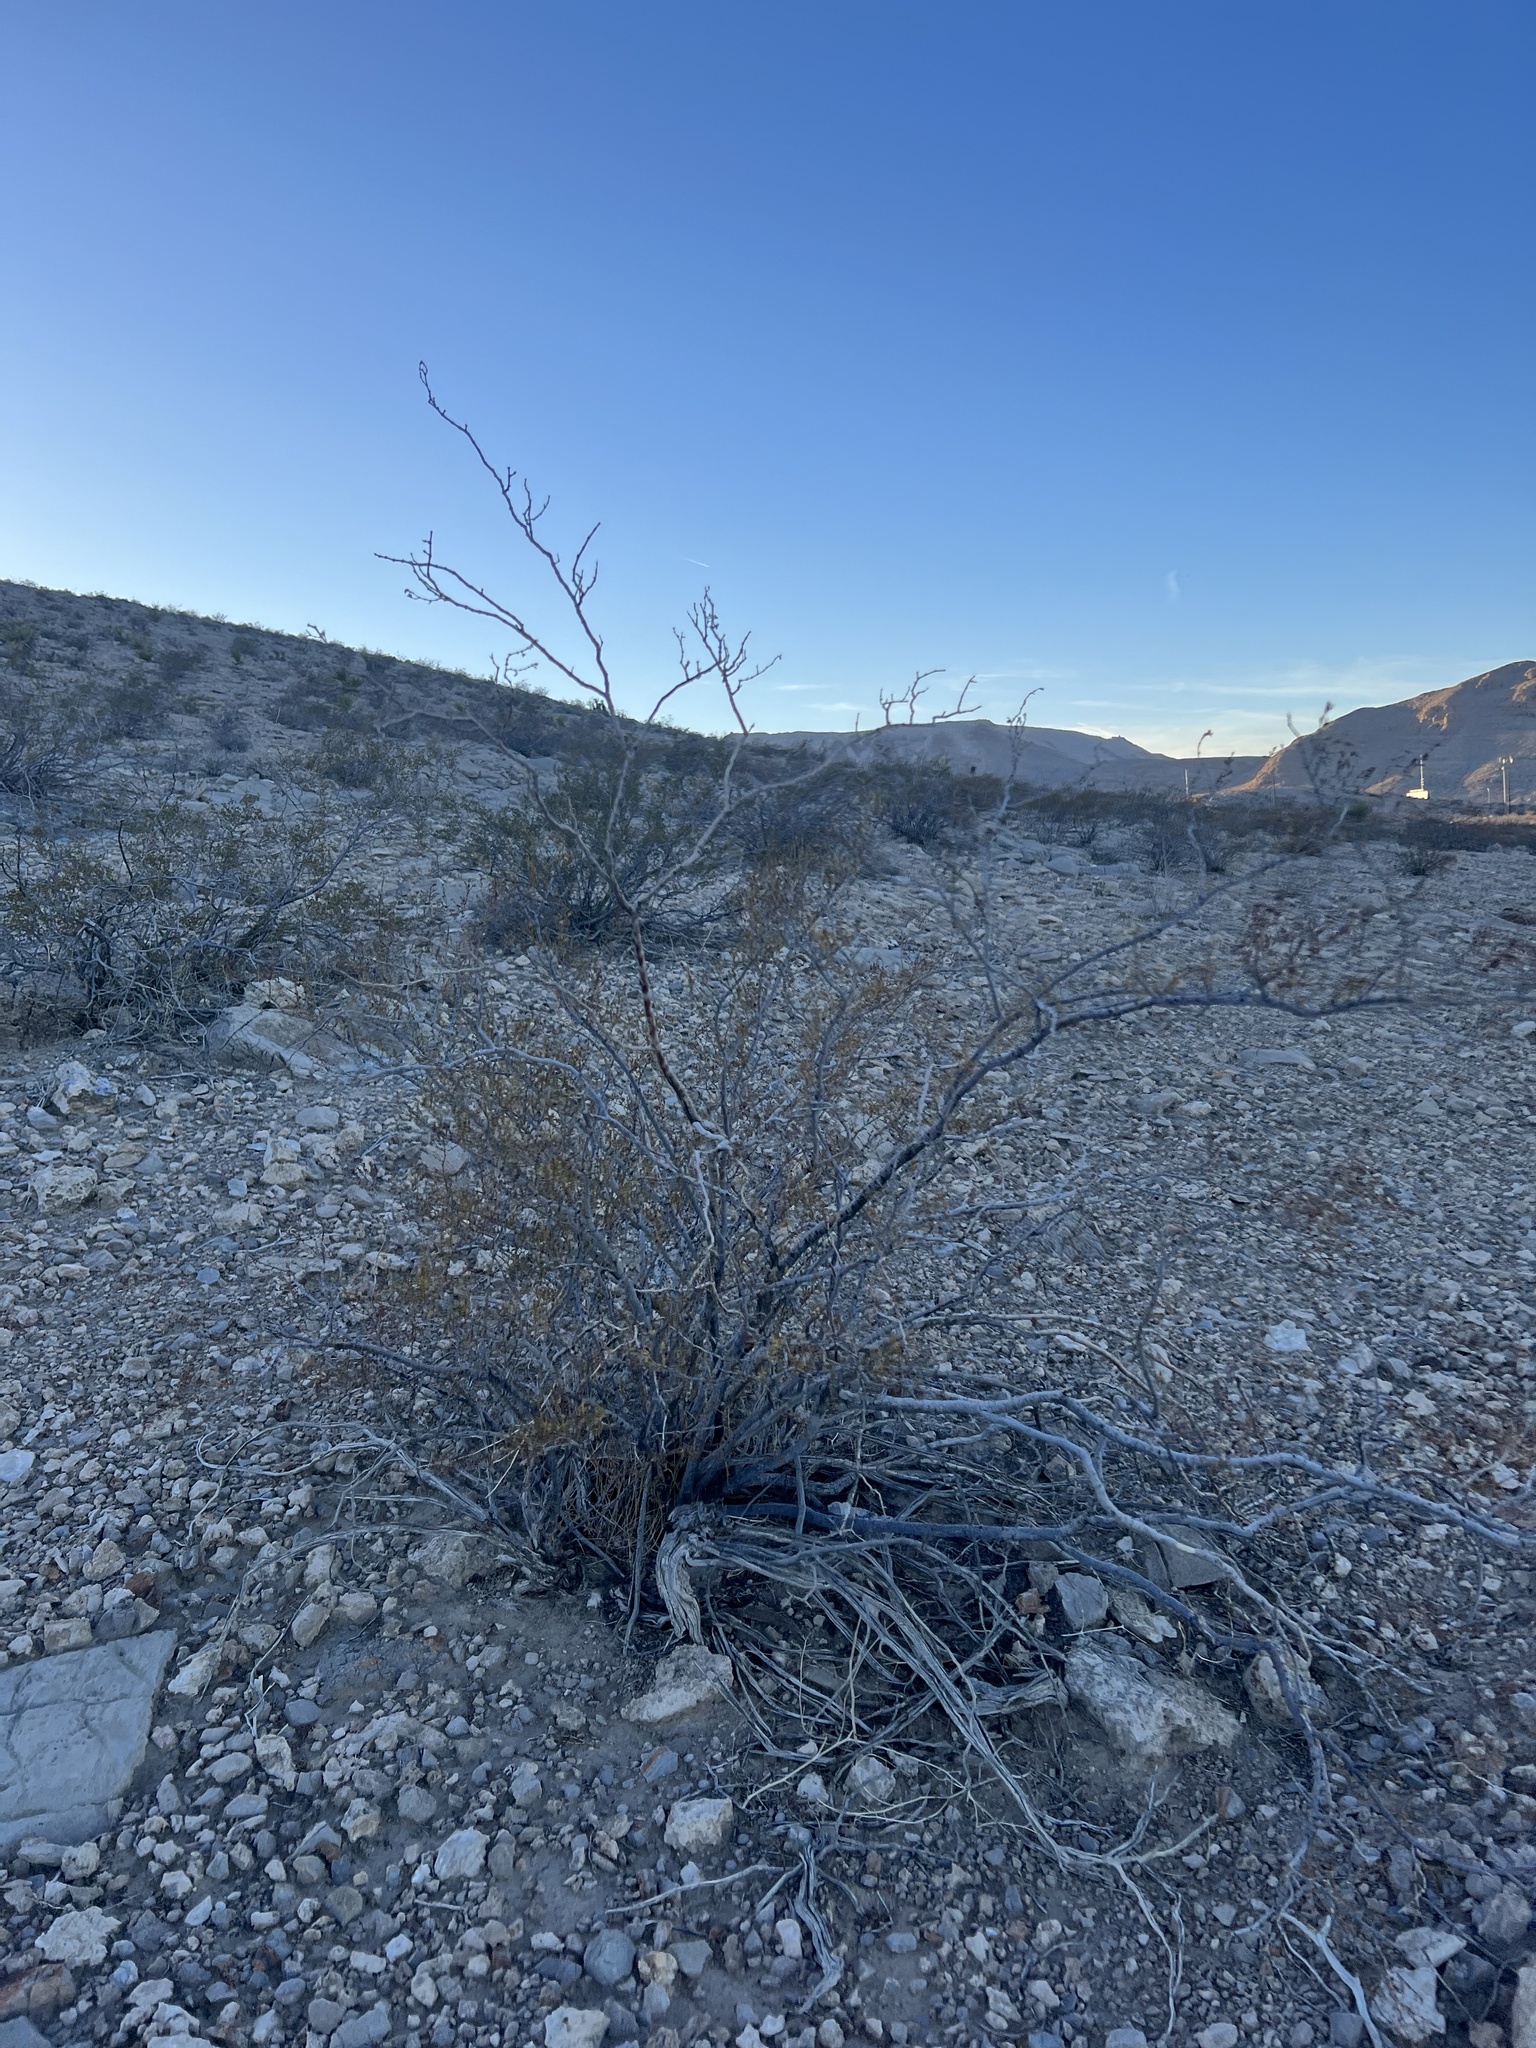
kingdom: Plantae
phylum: Tracheophyta
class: Magnoliopsida
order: Zygophyllales
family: Zygophyllaceae
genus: Larrea
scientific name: Larrea tridentata
